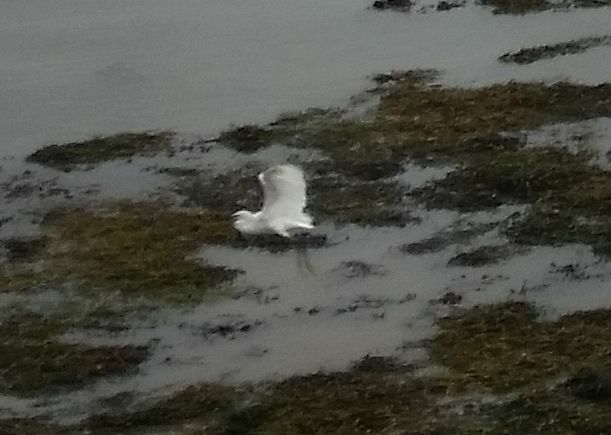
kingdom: Animalia
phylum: Chordata
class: Aves
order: Pelecaniformes
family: Ardeidae
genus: Egretta
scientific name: Egretta garzetta
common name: Little egret
